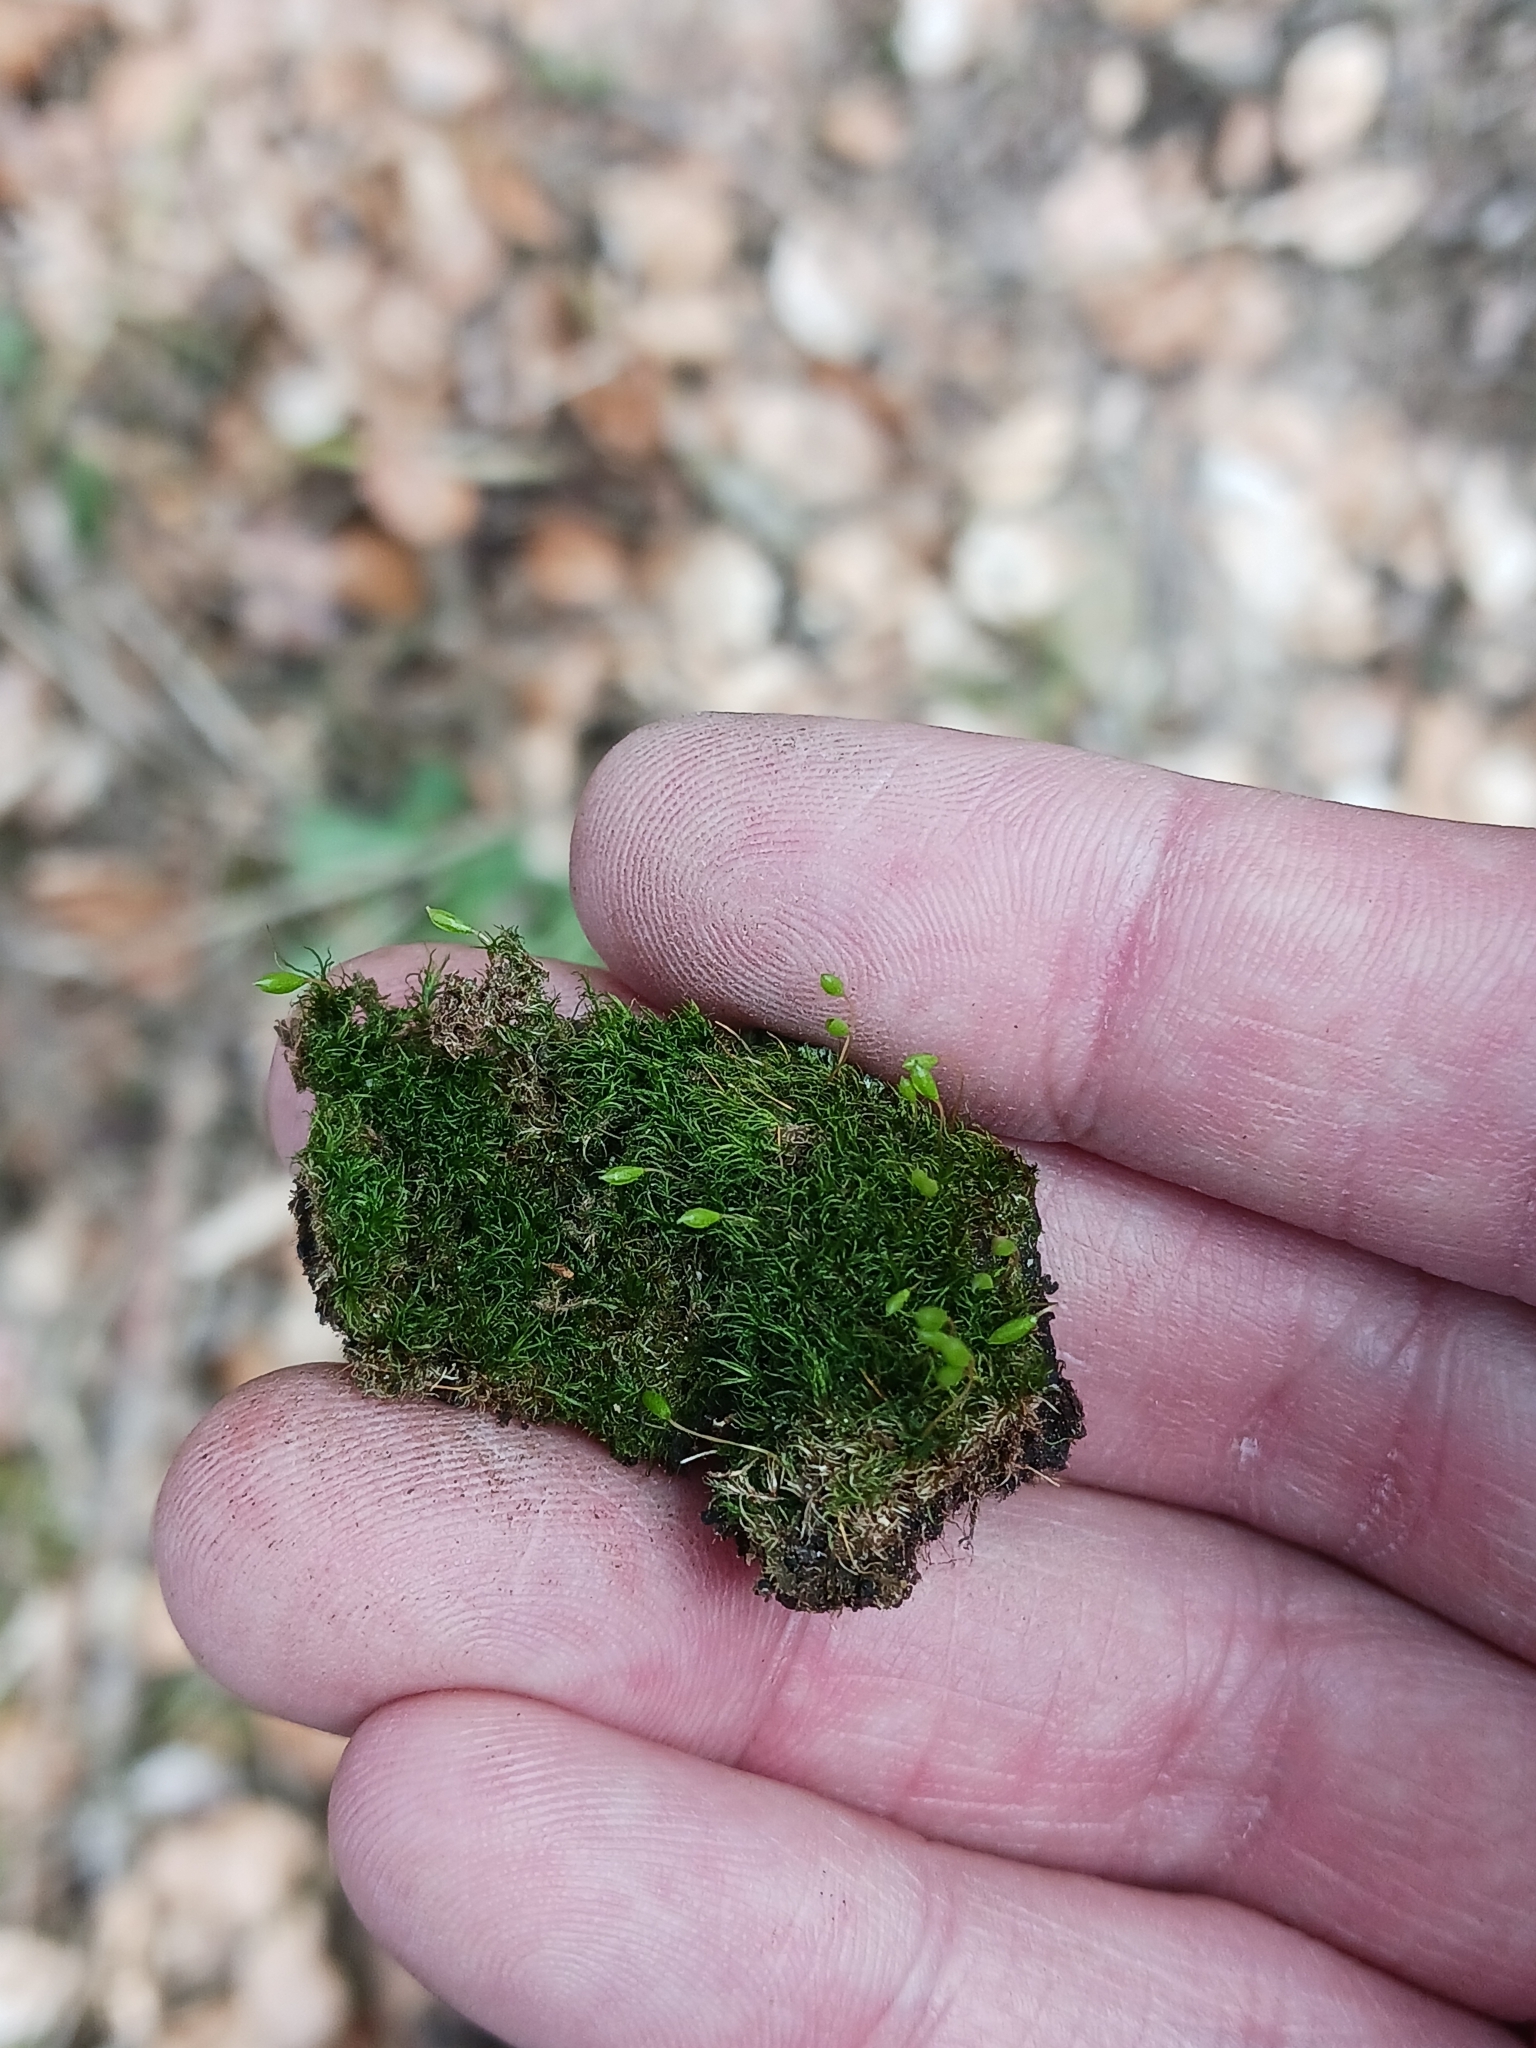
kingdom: Plantae
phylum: Bryophyta
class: Bryopsida
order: Orthodontiales
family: Orthodontiaceae
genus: Orthodontium
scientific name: Orthodontium lineare
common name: Cape thread-moss
